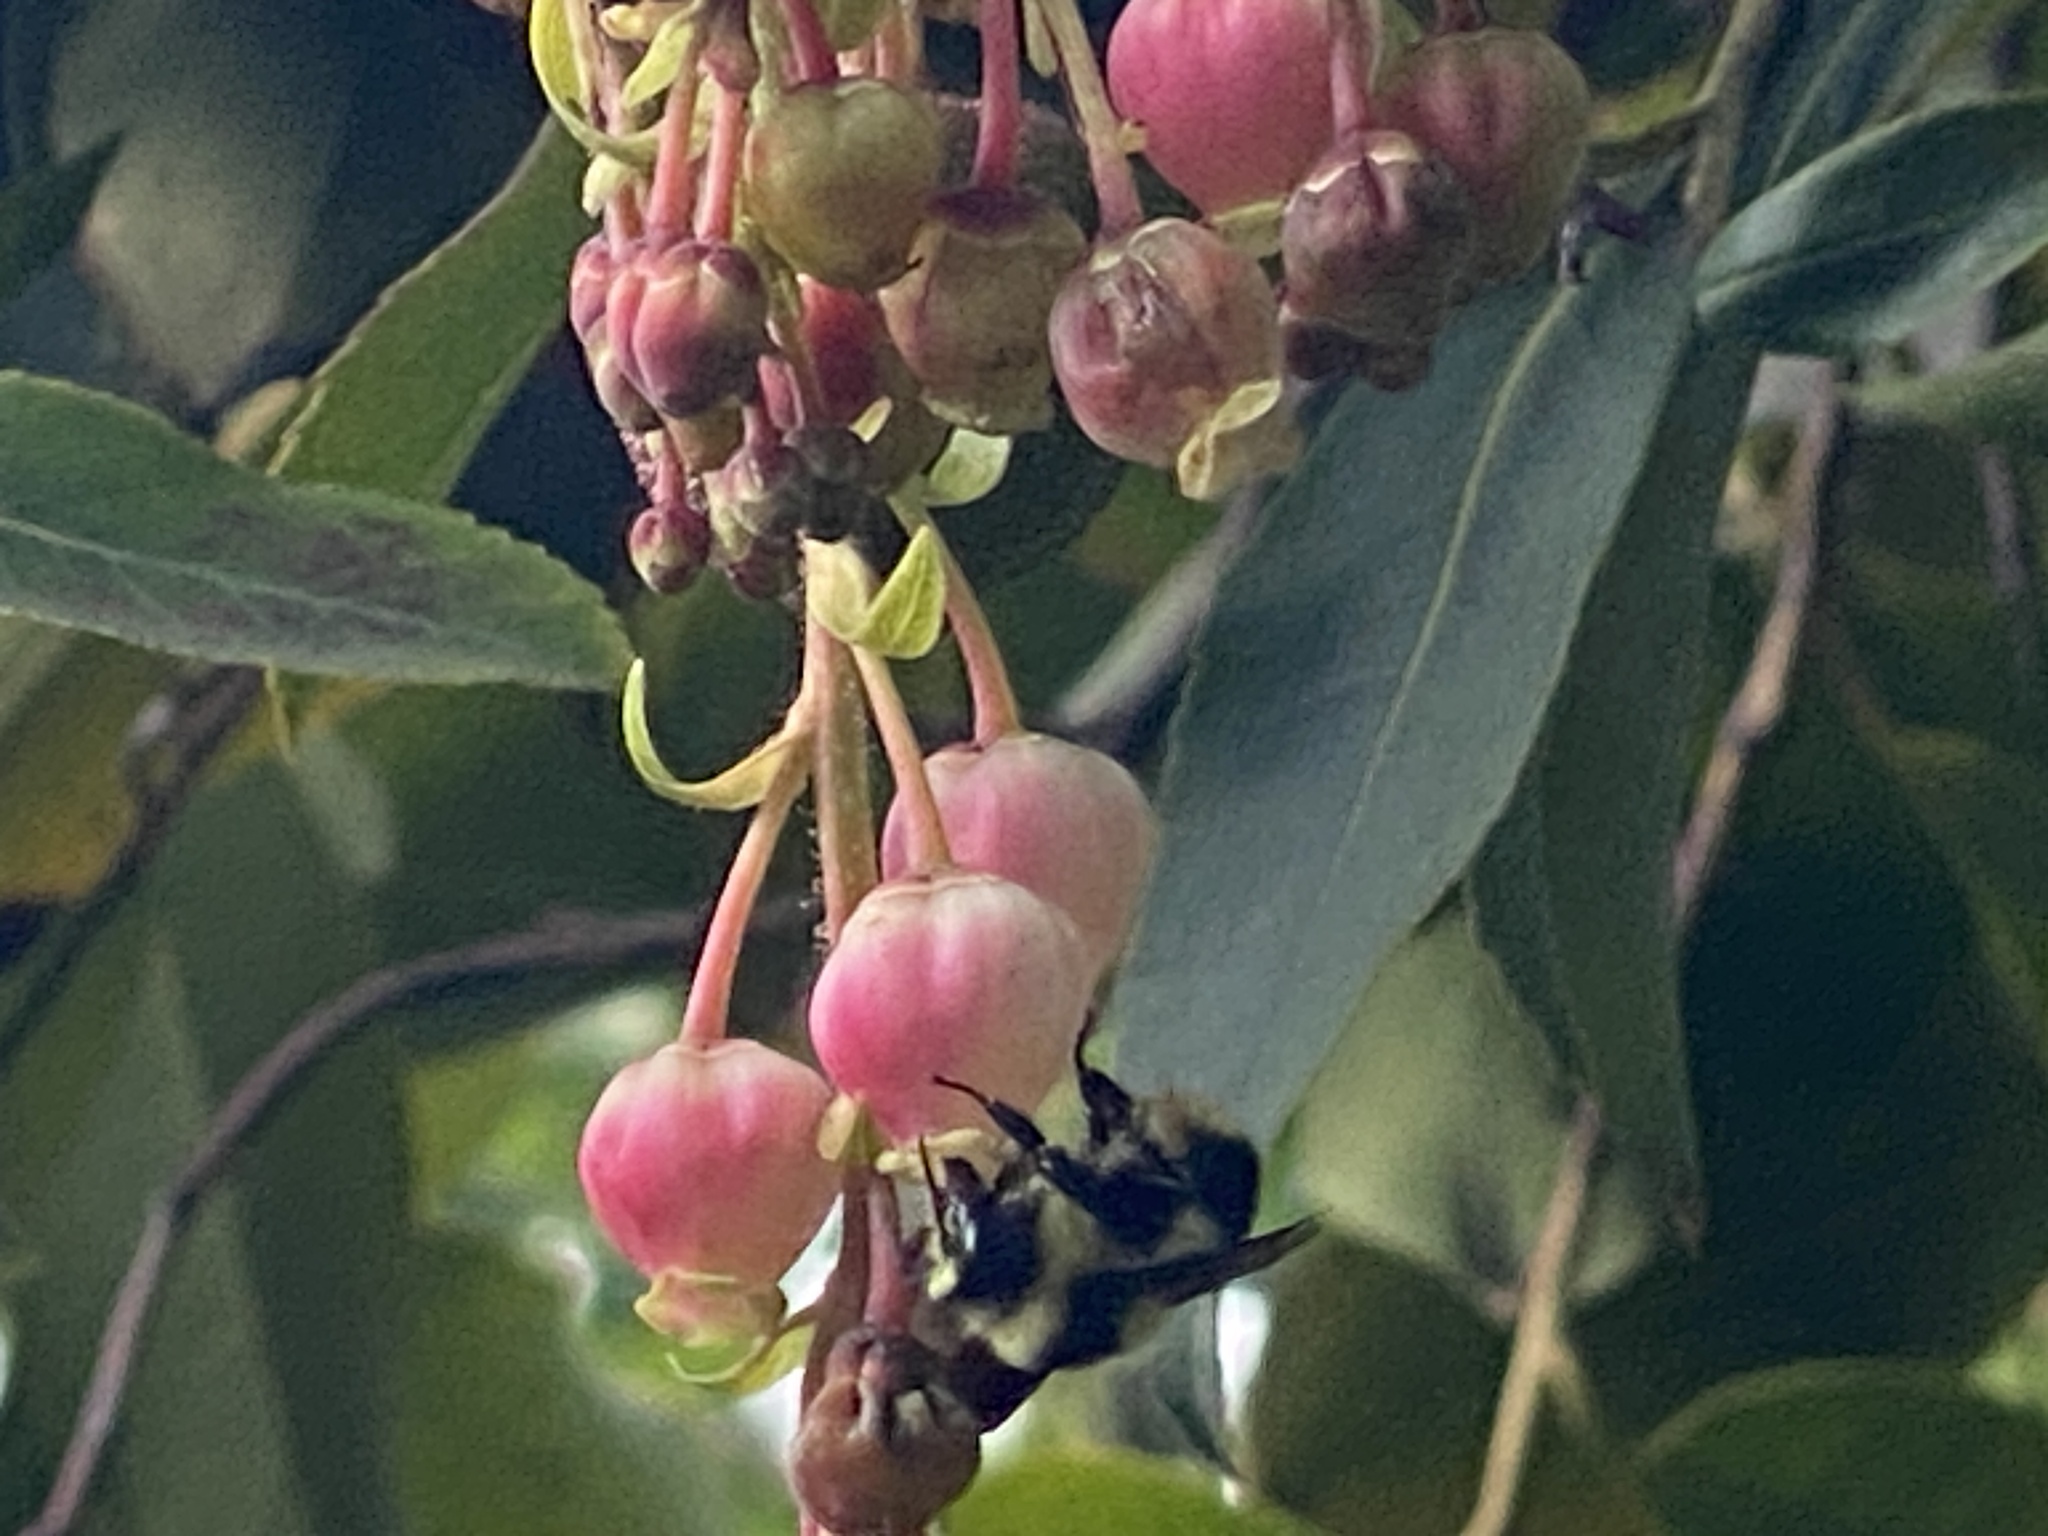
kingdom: Animalia
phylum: Arthropoda
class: Insecta
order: Hymenoptera
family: Apidae
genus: Bombus
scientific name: Bombus melanopygus
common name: Black tail bumble bee
